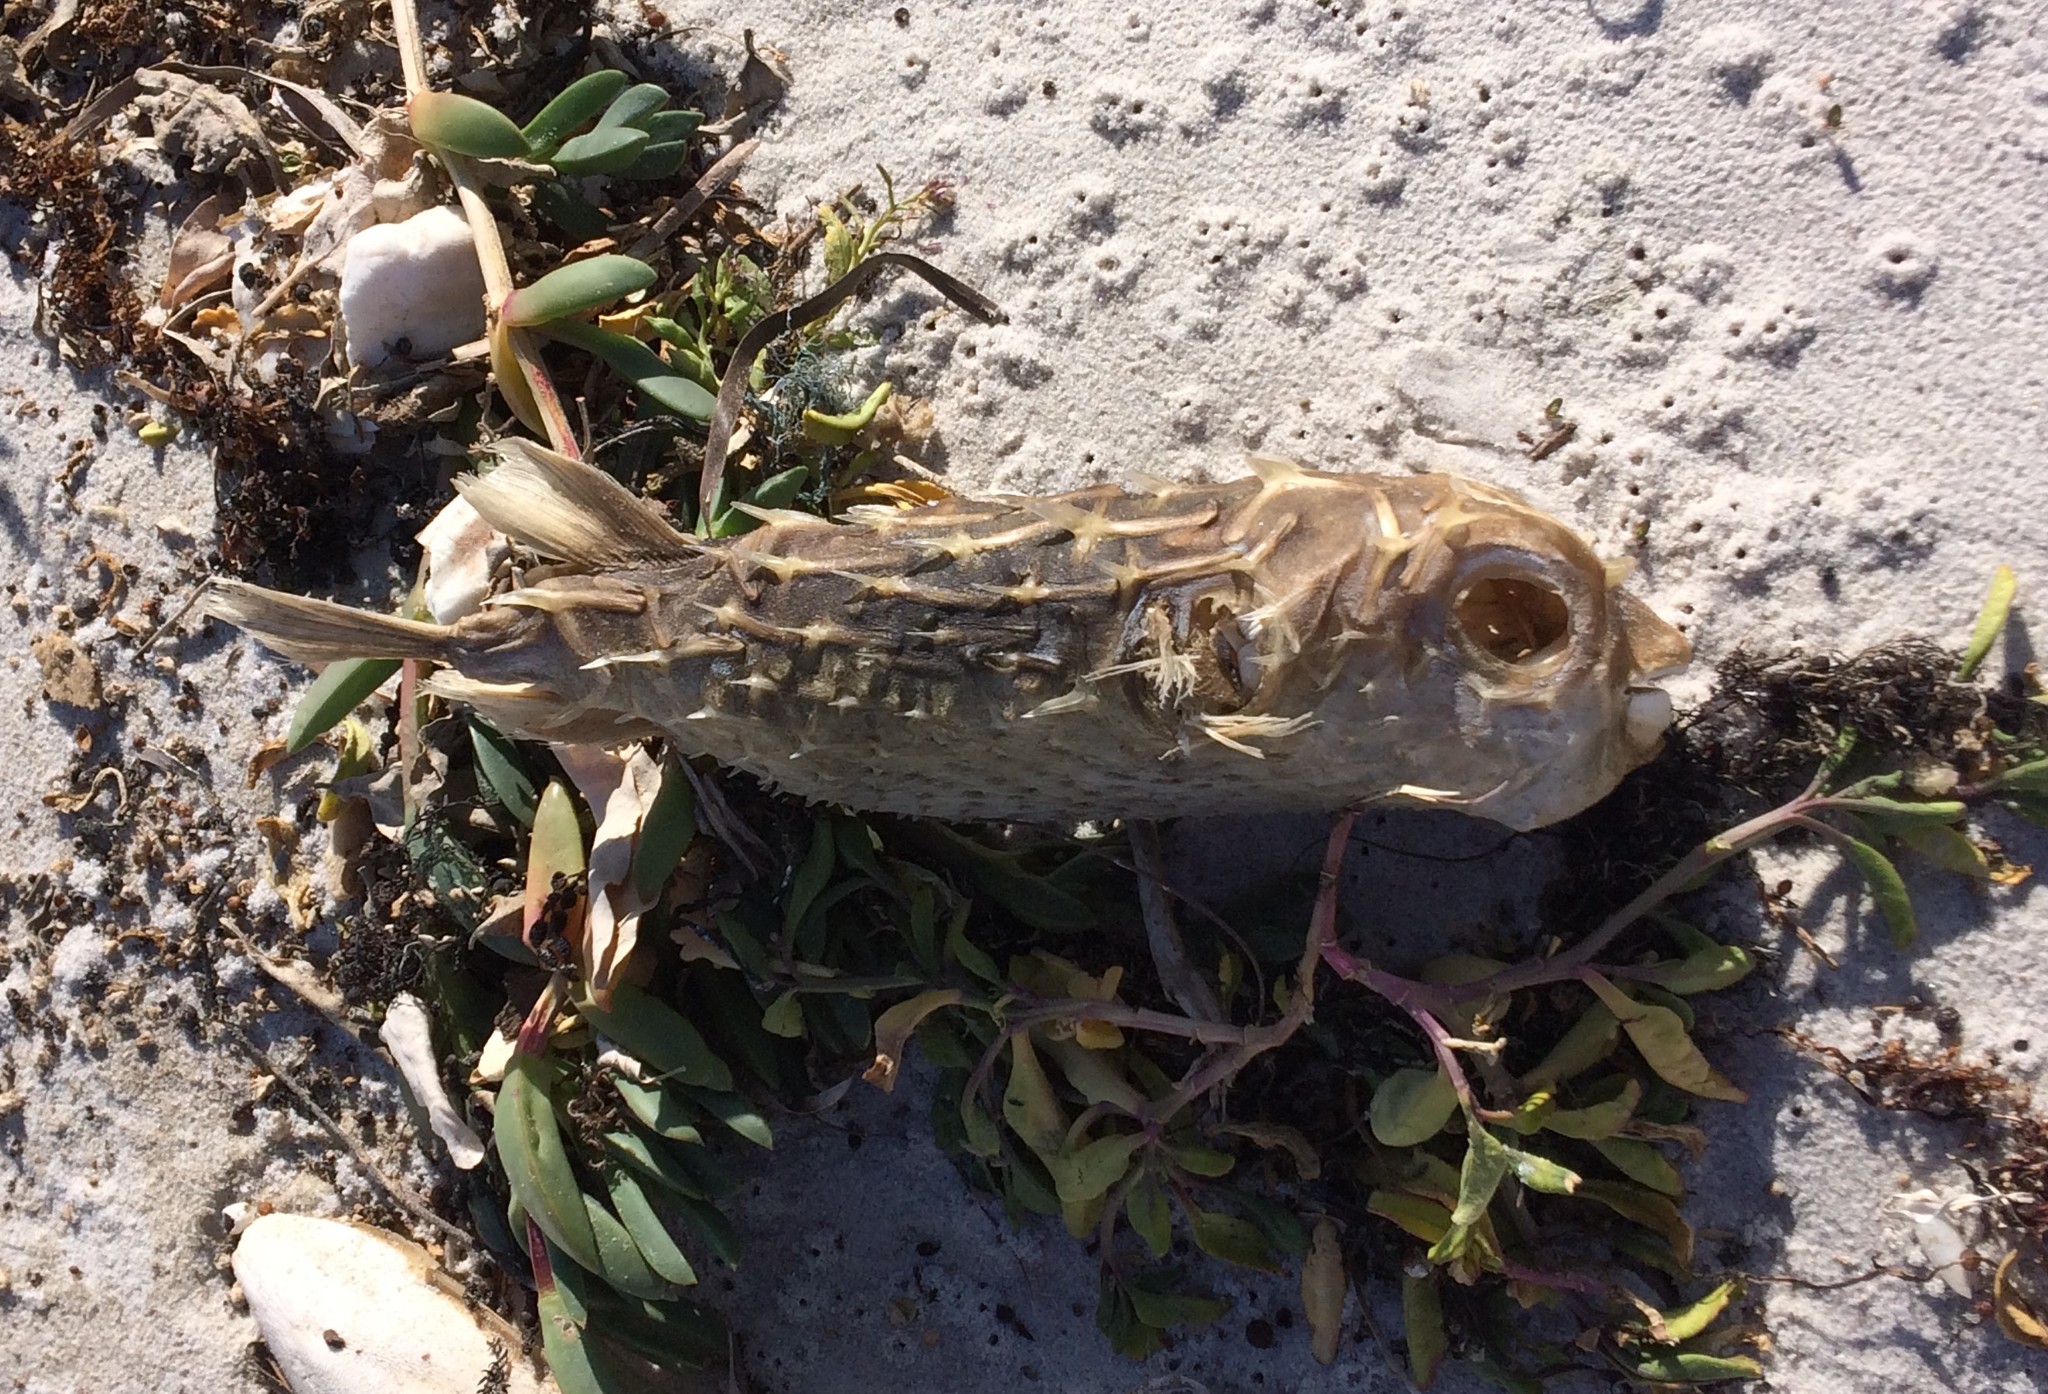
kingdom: Animalia
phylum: Chordata
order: Tetraodontiformes
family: Diodontidae
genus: Allomycterus
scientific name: Allomycterus pilatus
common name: No common name
